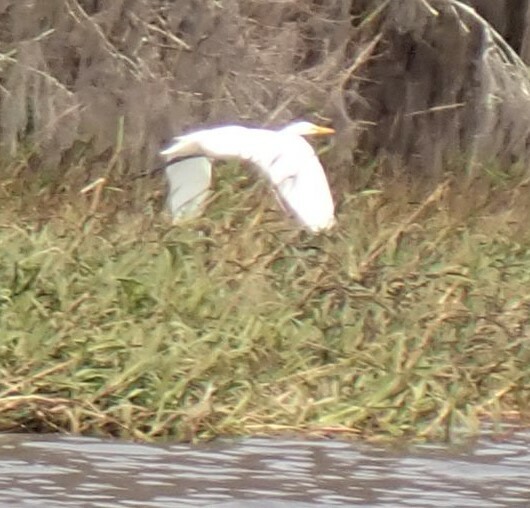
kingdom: Animalia
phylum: Chordata
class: Aves
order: Pelecaniformes
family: Ardeidae
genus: Ardea
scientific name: Ardea alba
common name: Great egret
